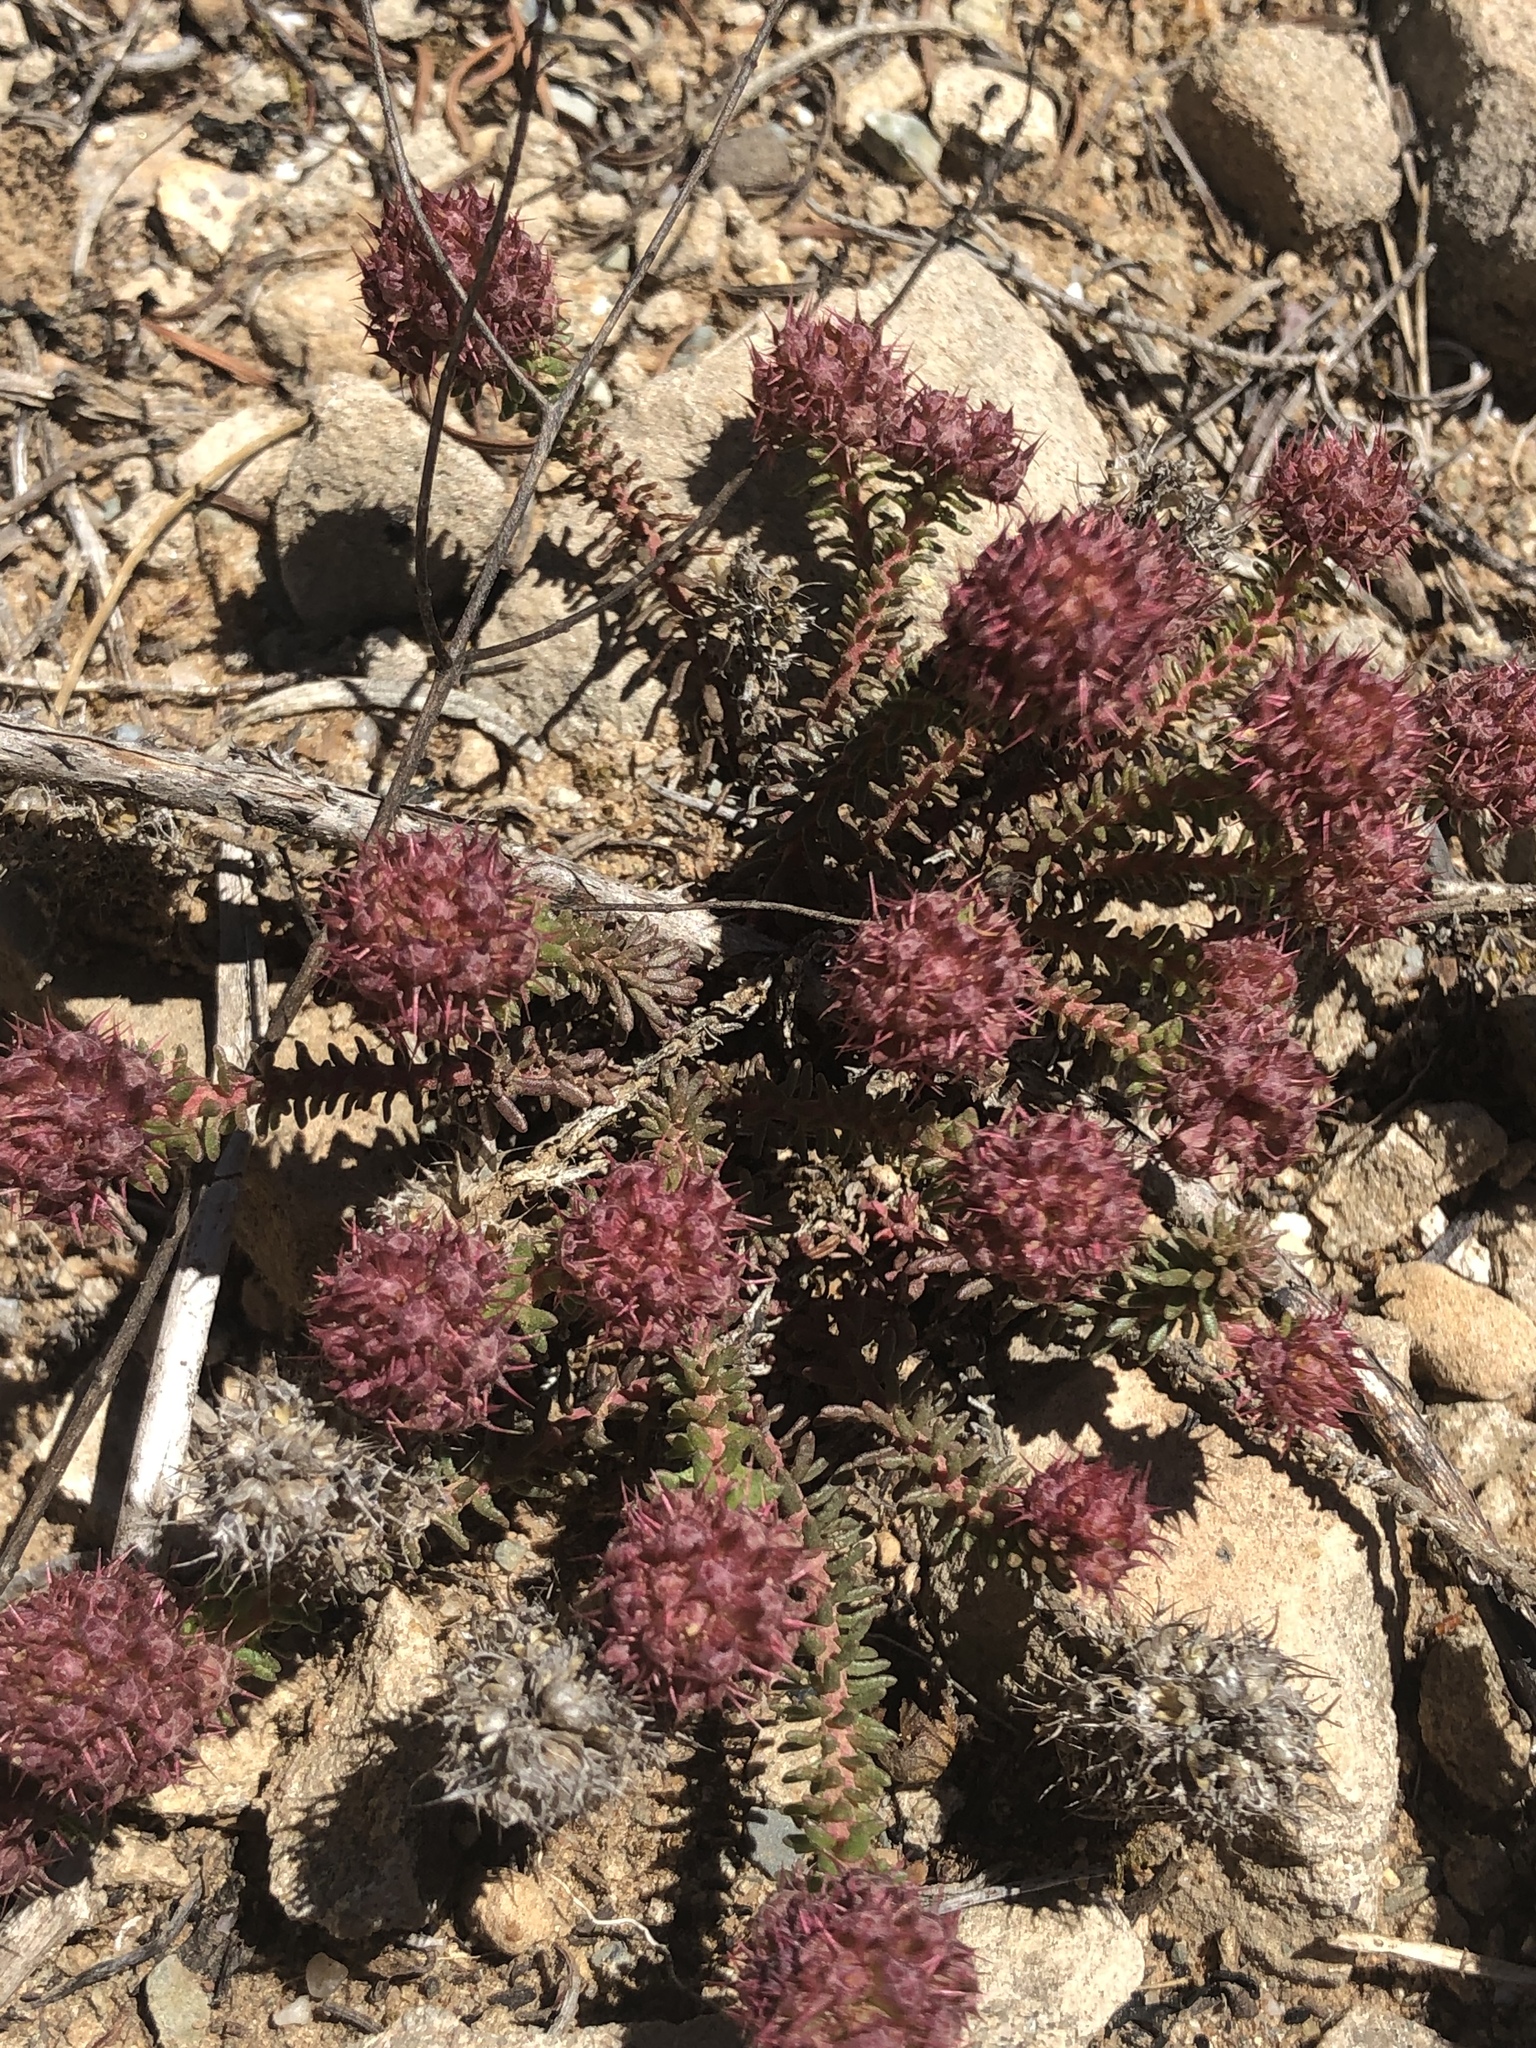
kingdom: Plantae
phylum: Tracheophyta
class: Magnoliopsida
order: Ericales
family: Primulaceae
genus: Coris
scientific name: Coris monspeliensis
